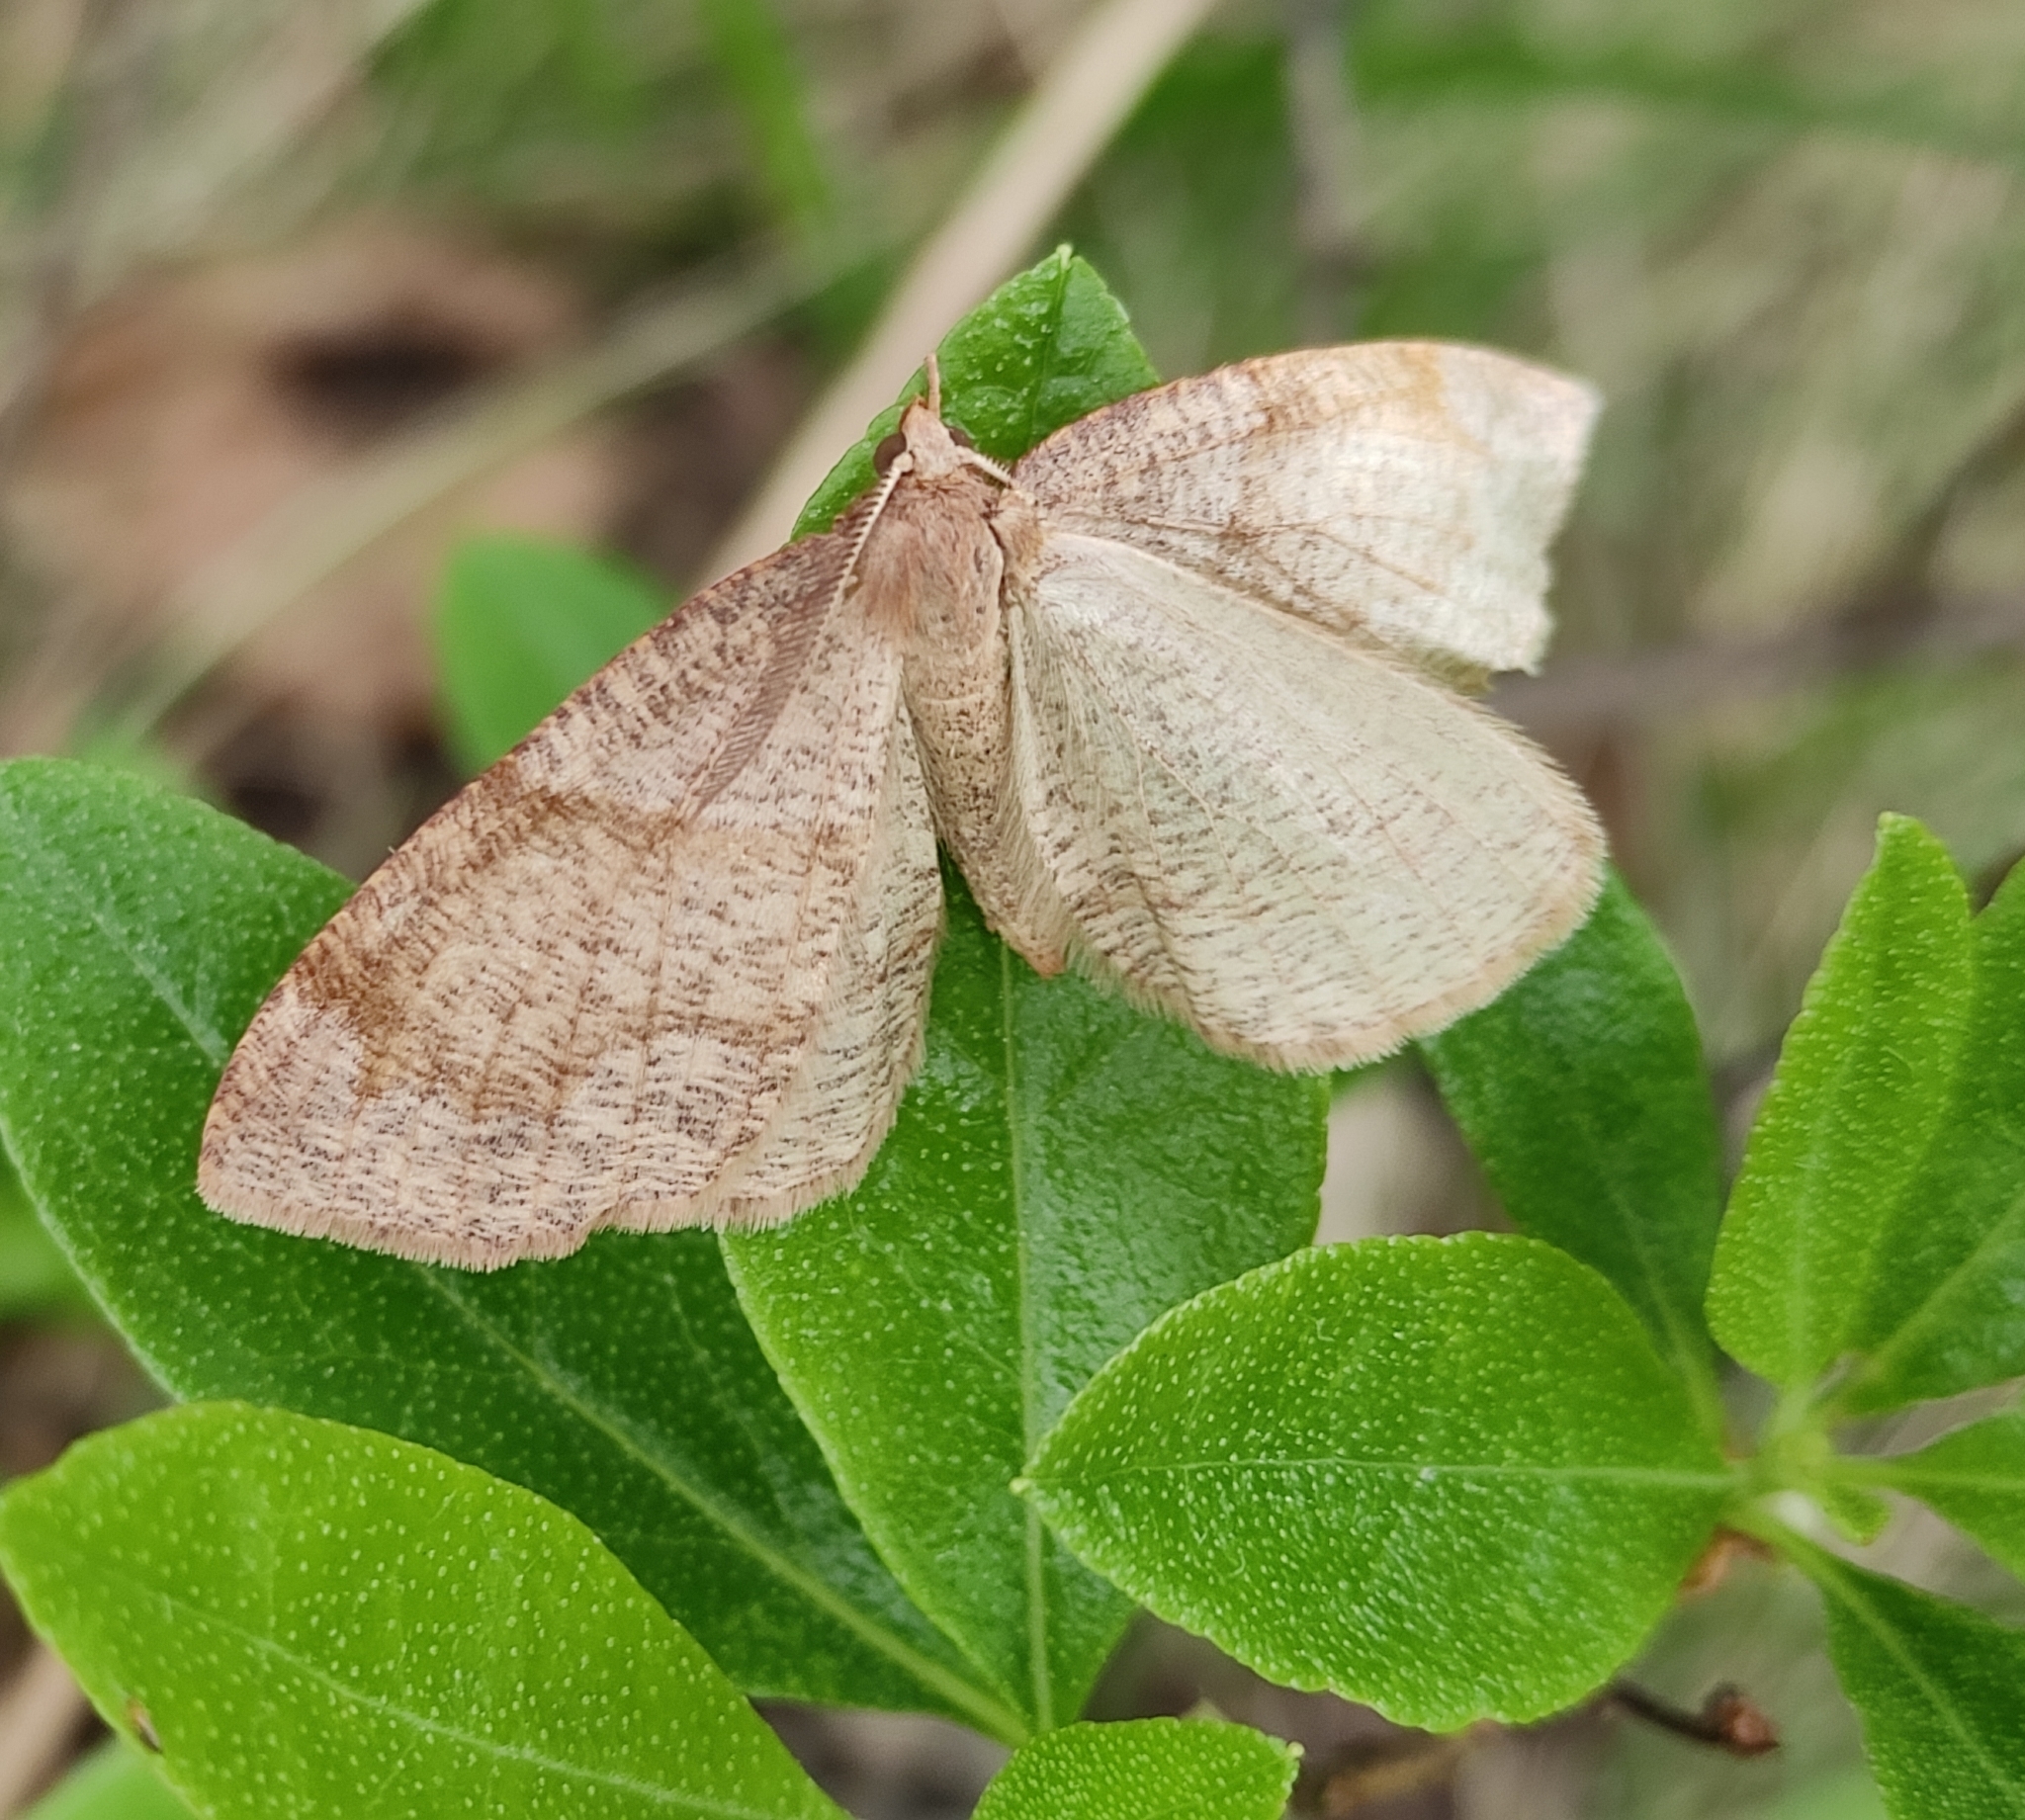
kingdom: Animalia
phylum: Arthropoda
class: Insecta
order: Lepidoptera
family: Geometridae
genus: Plagodis
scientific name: Plagodis pulveraria
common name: Barred umber
